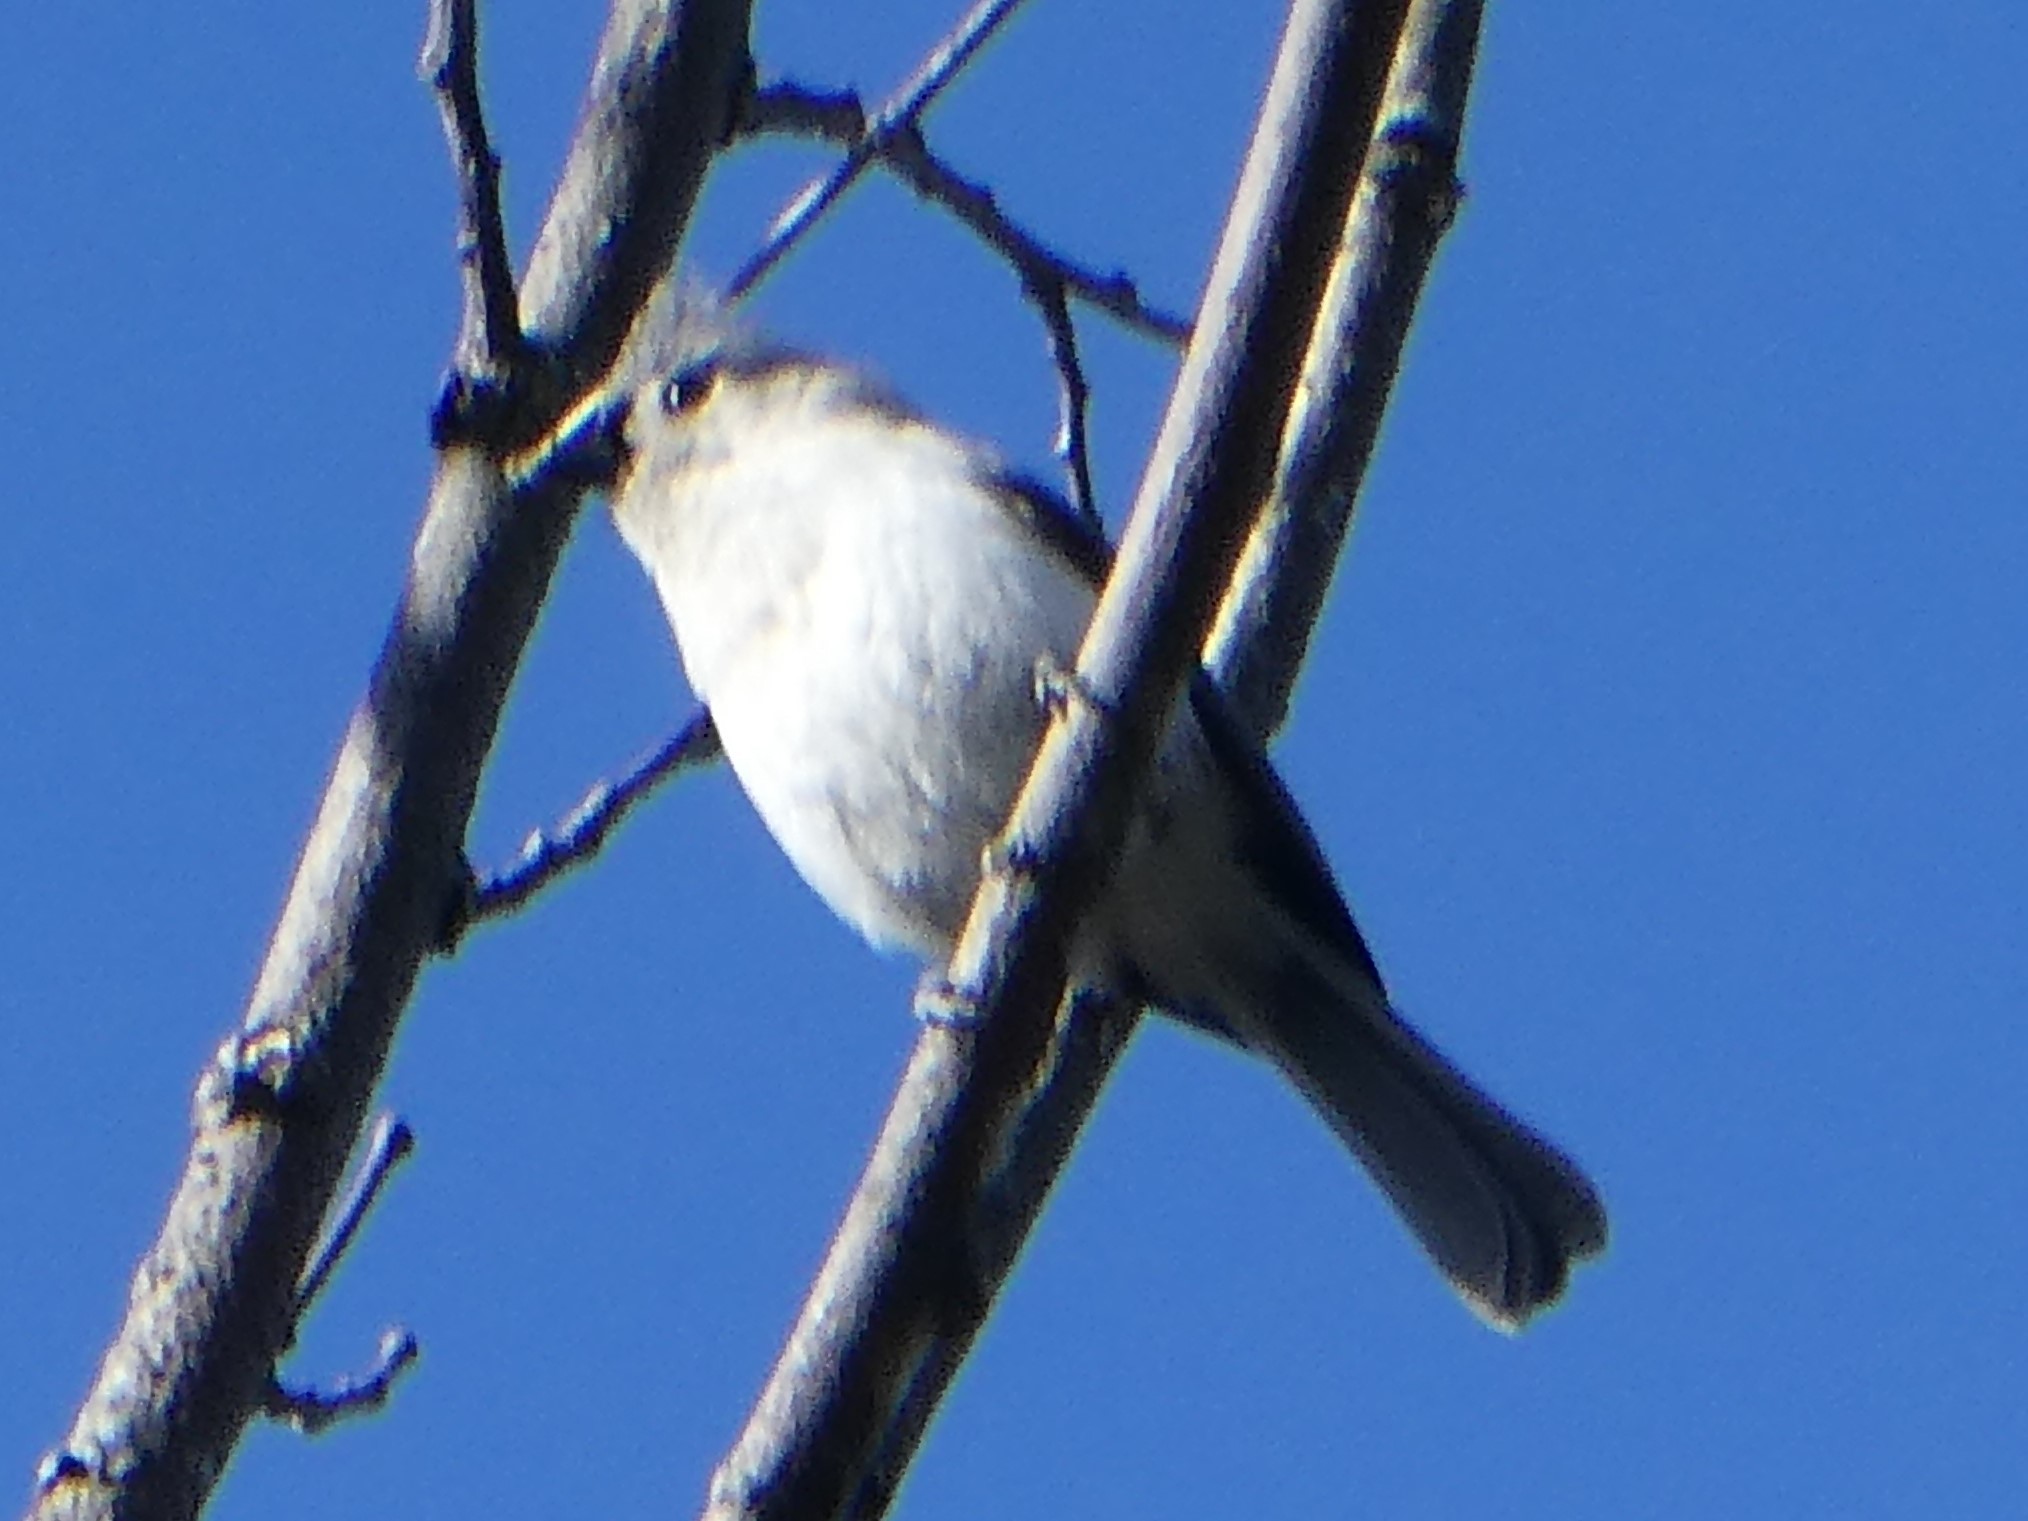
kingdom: Animalia
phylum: Chordata
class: Aves
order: Passeriformes
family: Paridae
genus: Baeolophus
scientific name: Baeolophus bicolor
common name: Tufted titmouse
